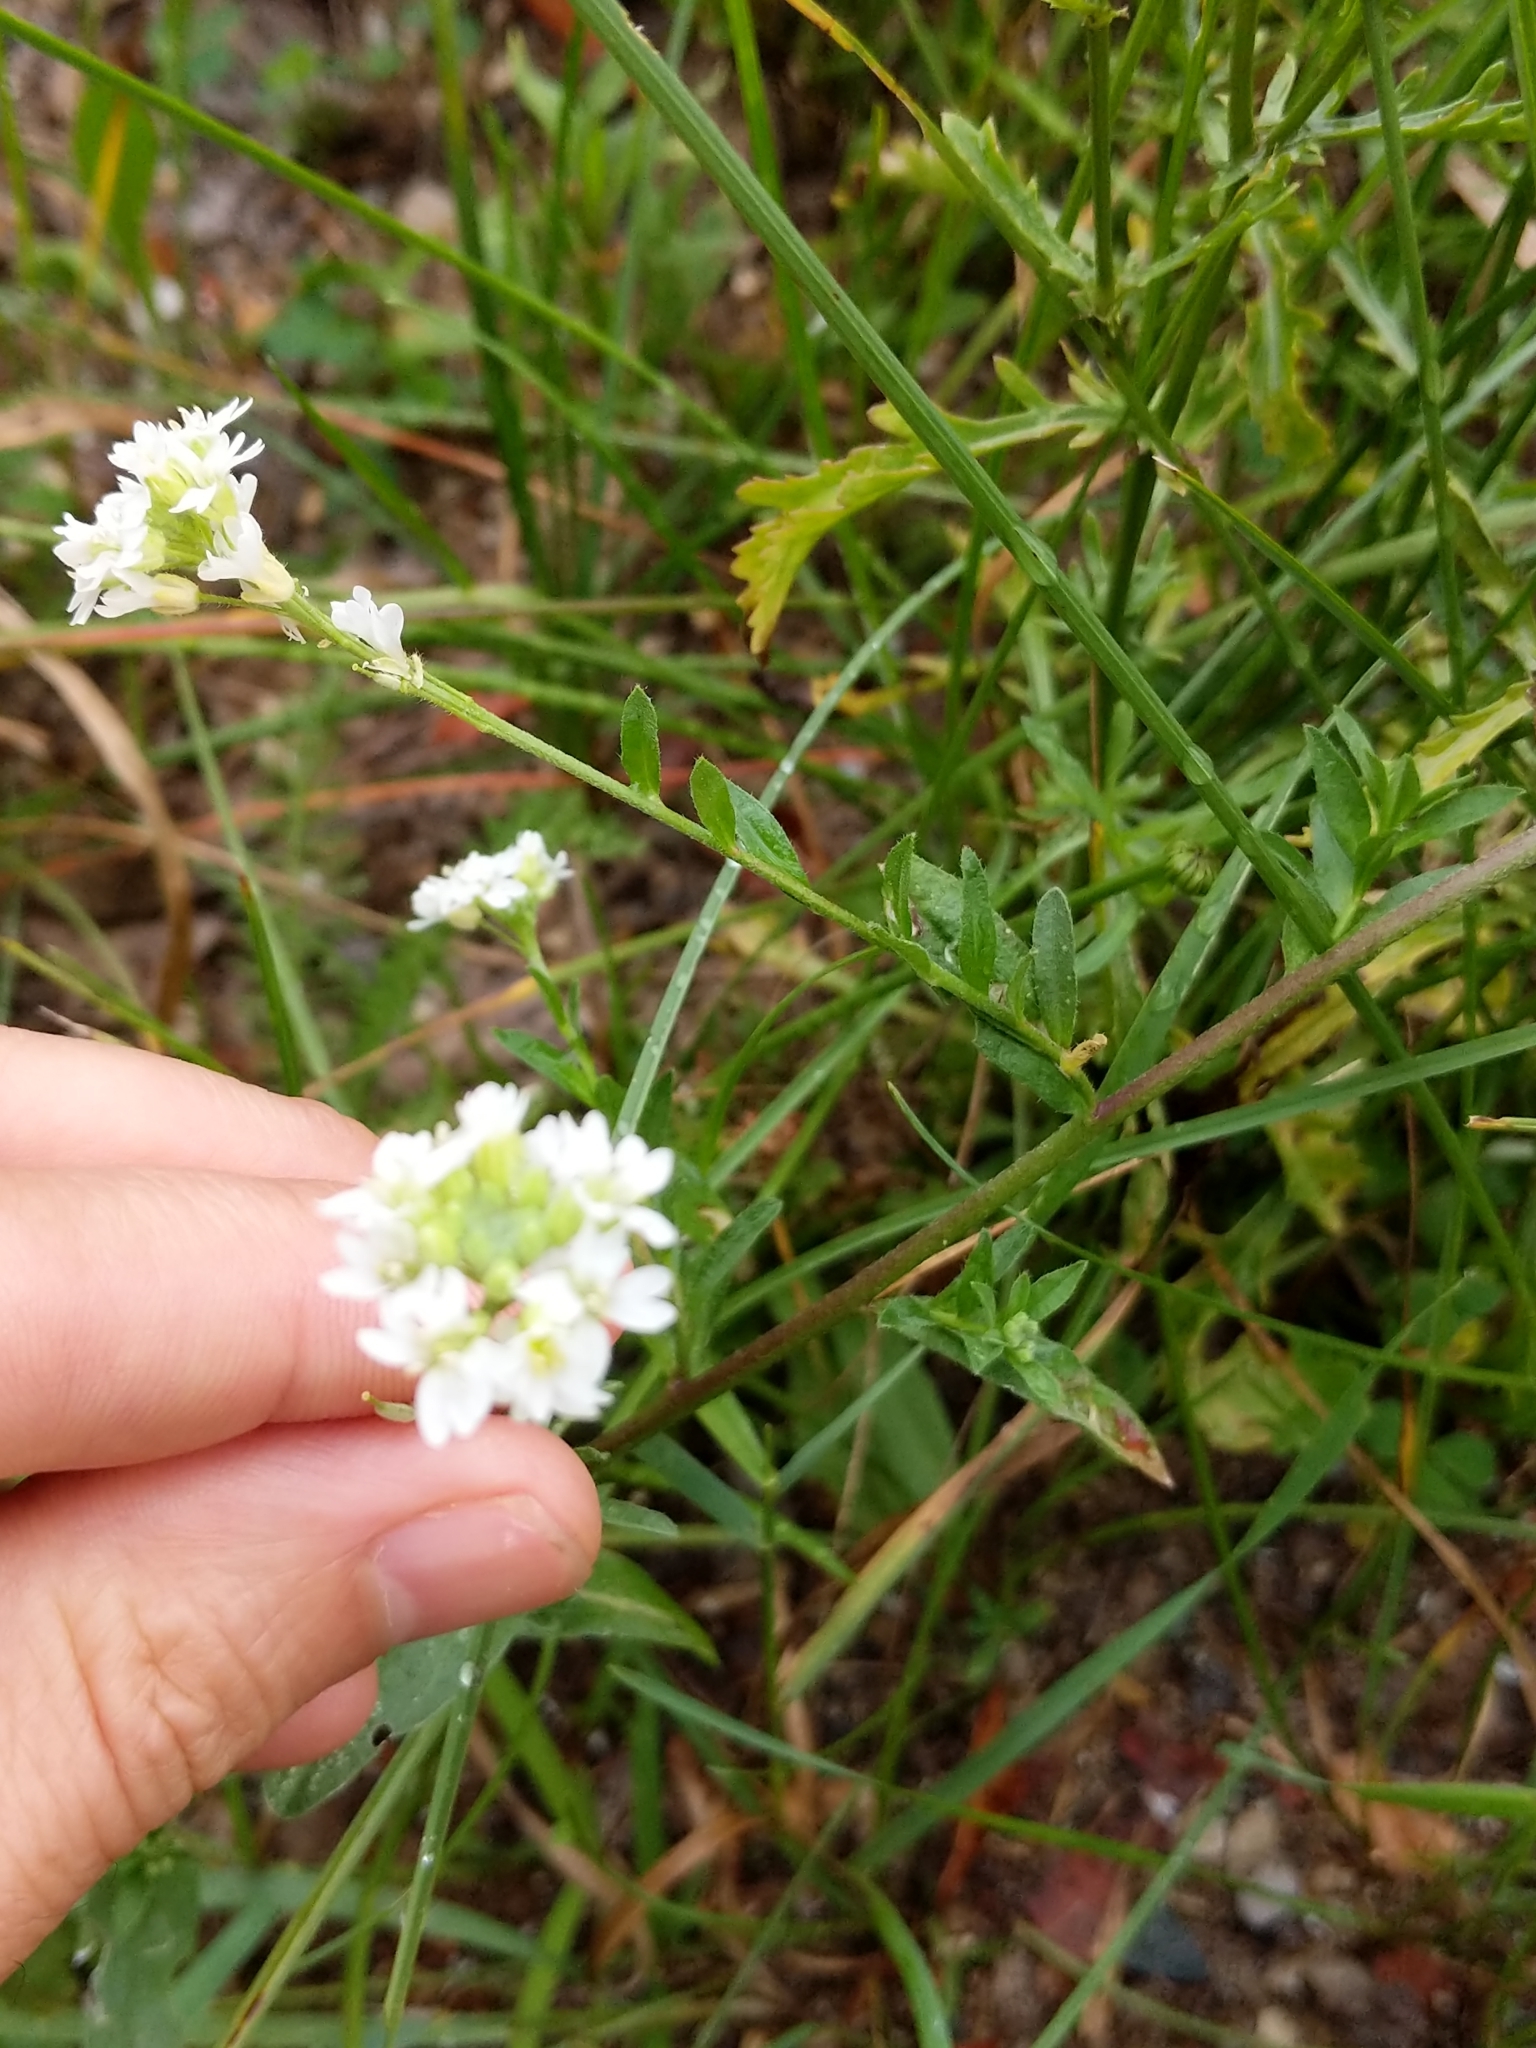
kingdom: Plantae
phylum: Tracheophyta
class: Magnoliopsida
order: Brassicales
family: Brassicaceae
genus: Berteroa
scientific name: Berteroa incana
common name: Hoary alison
